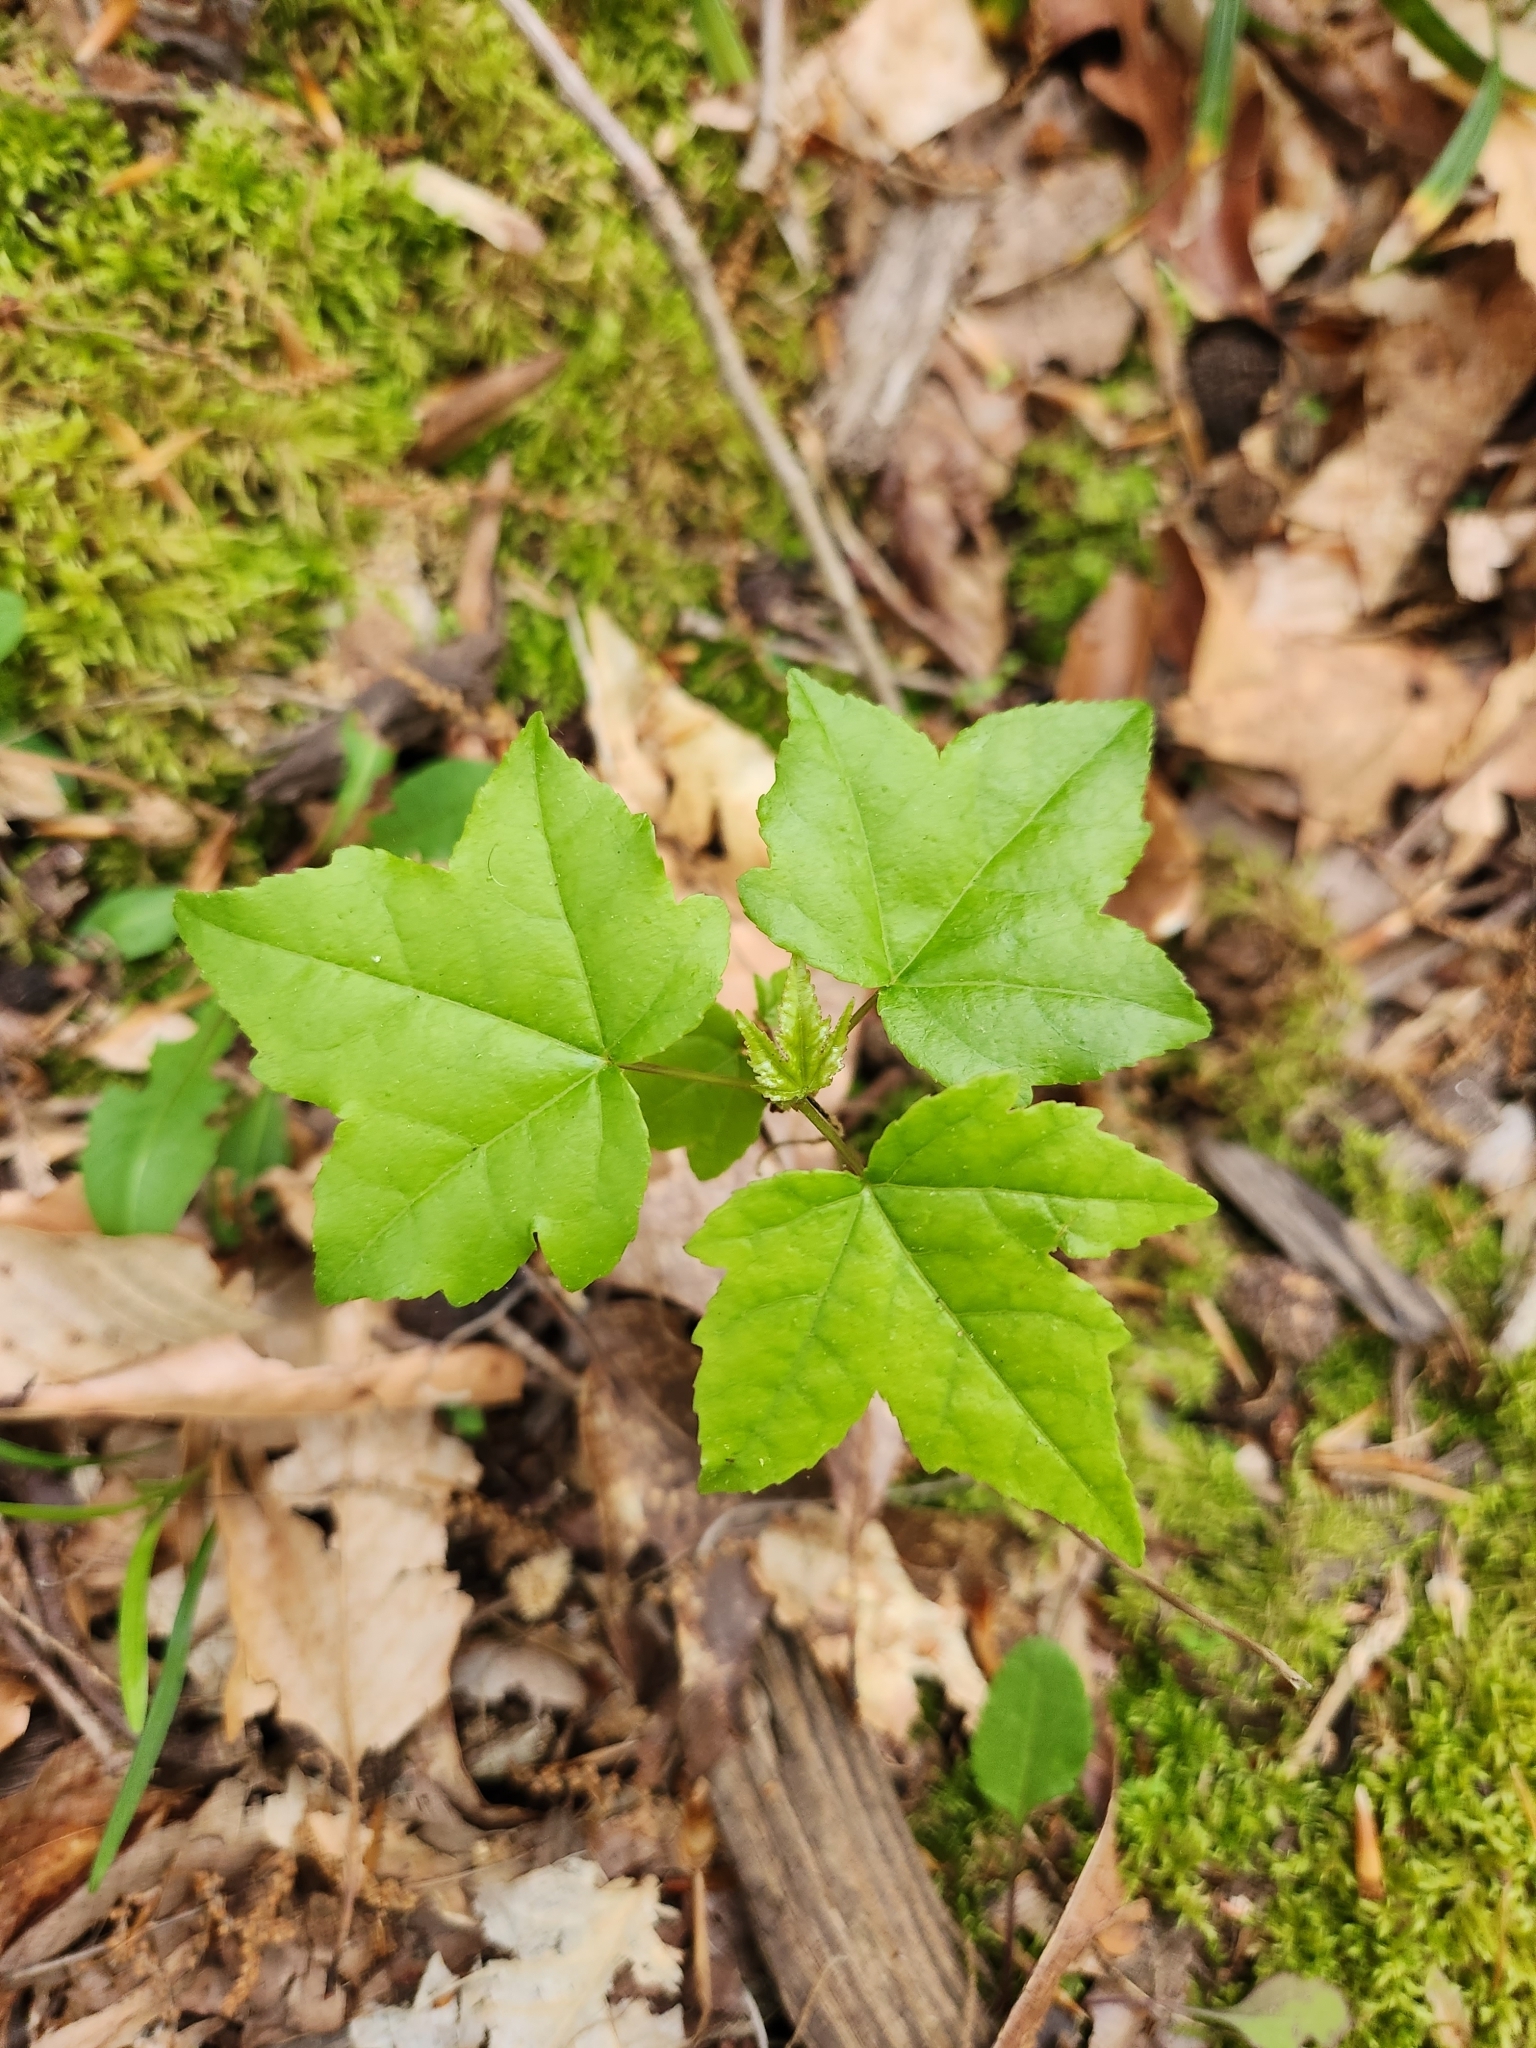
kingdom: Plantae
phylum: Tracheophyta
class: Magnoliopsida
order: Saxifragales
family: Altingiaceae
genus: Liquidambar
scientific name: Liquidambar styraciflua
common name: Sweet gum
